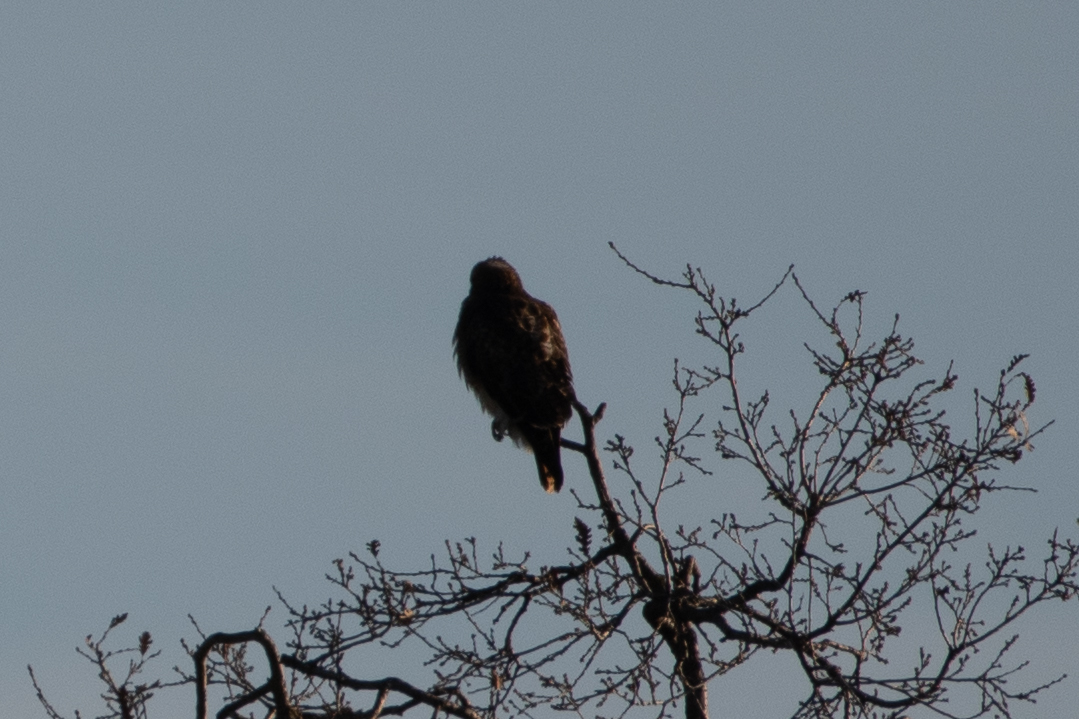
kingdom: Animalia
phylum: Chordata
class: Aves
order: Accipitriformes
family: Accipitridae
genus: Buteo
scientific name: Buteo jamaicensis
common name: Red-tailed hawk
